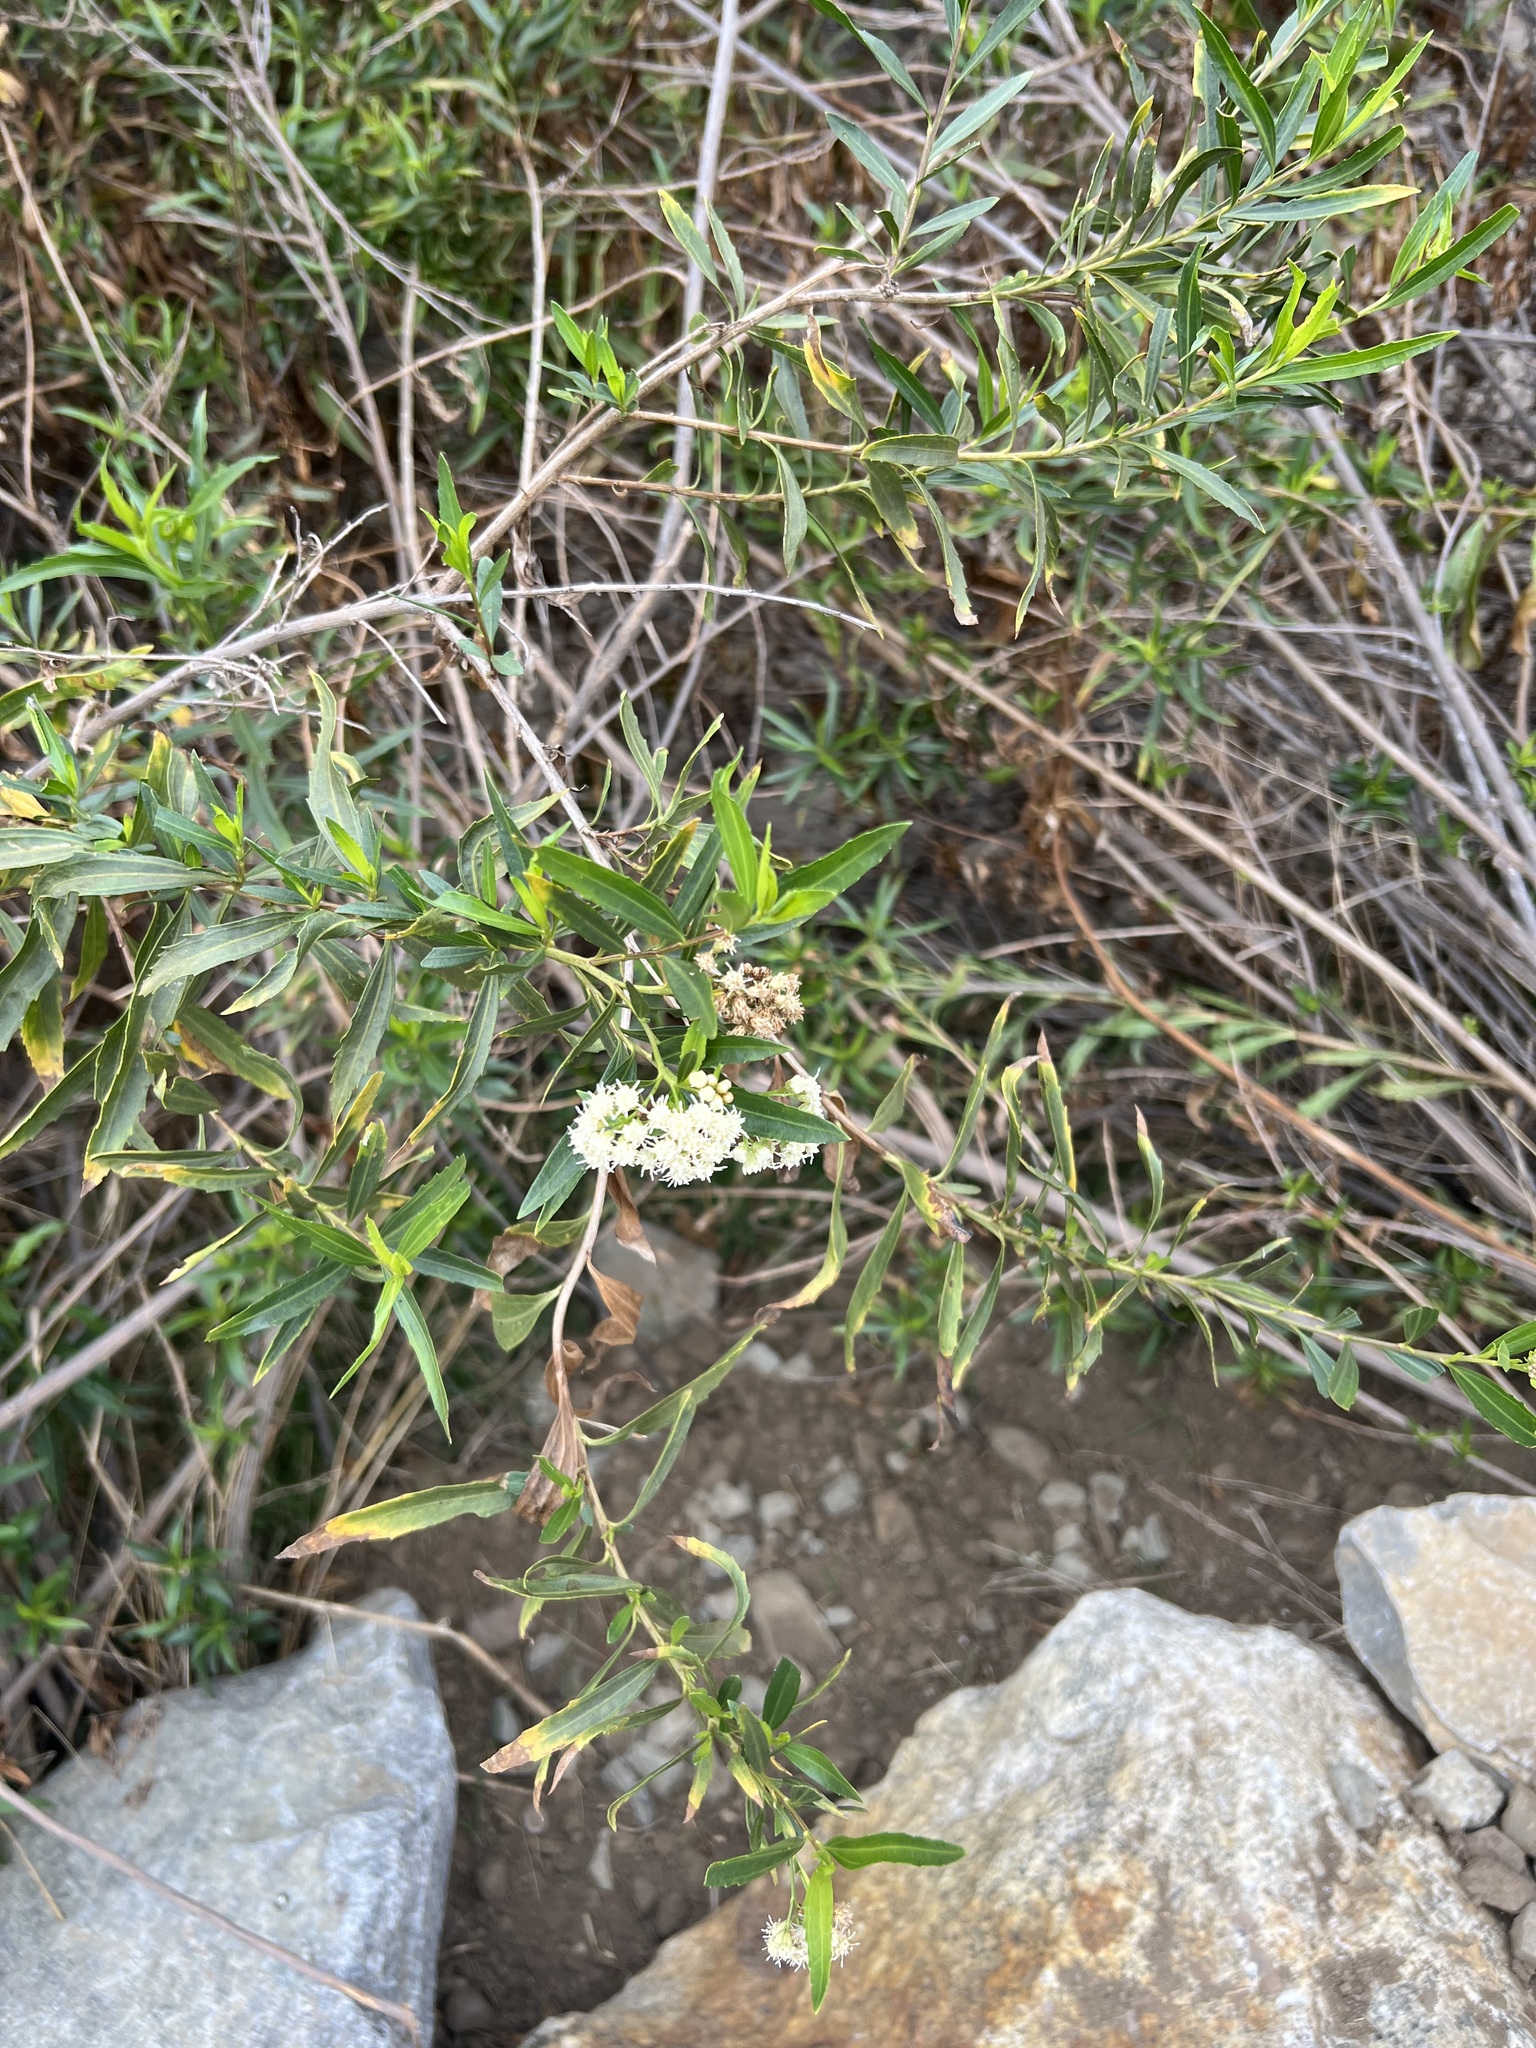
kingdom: Plantae
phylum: Tracheophyta
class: Magnoliopsida
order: Asterales
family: Asteraceae
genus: Baccharis
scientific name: Baccharis salicifolia
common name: Sticky baccharis
